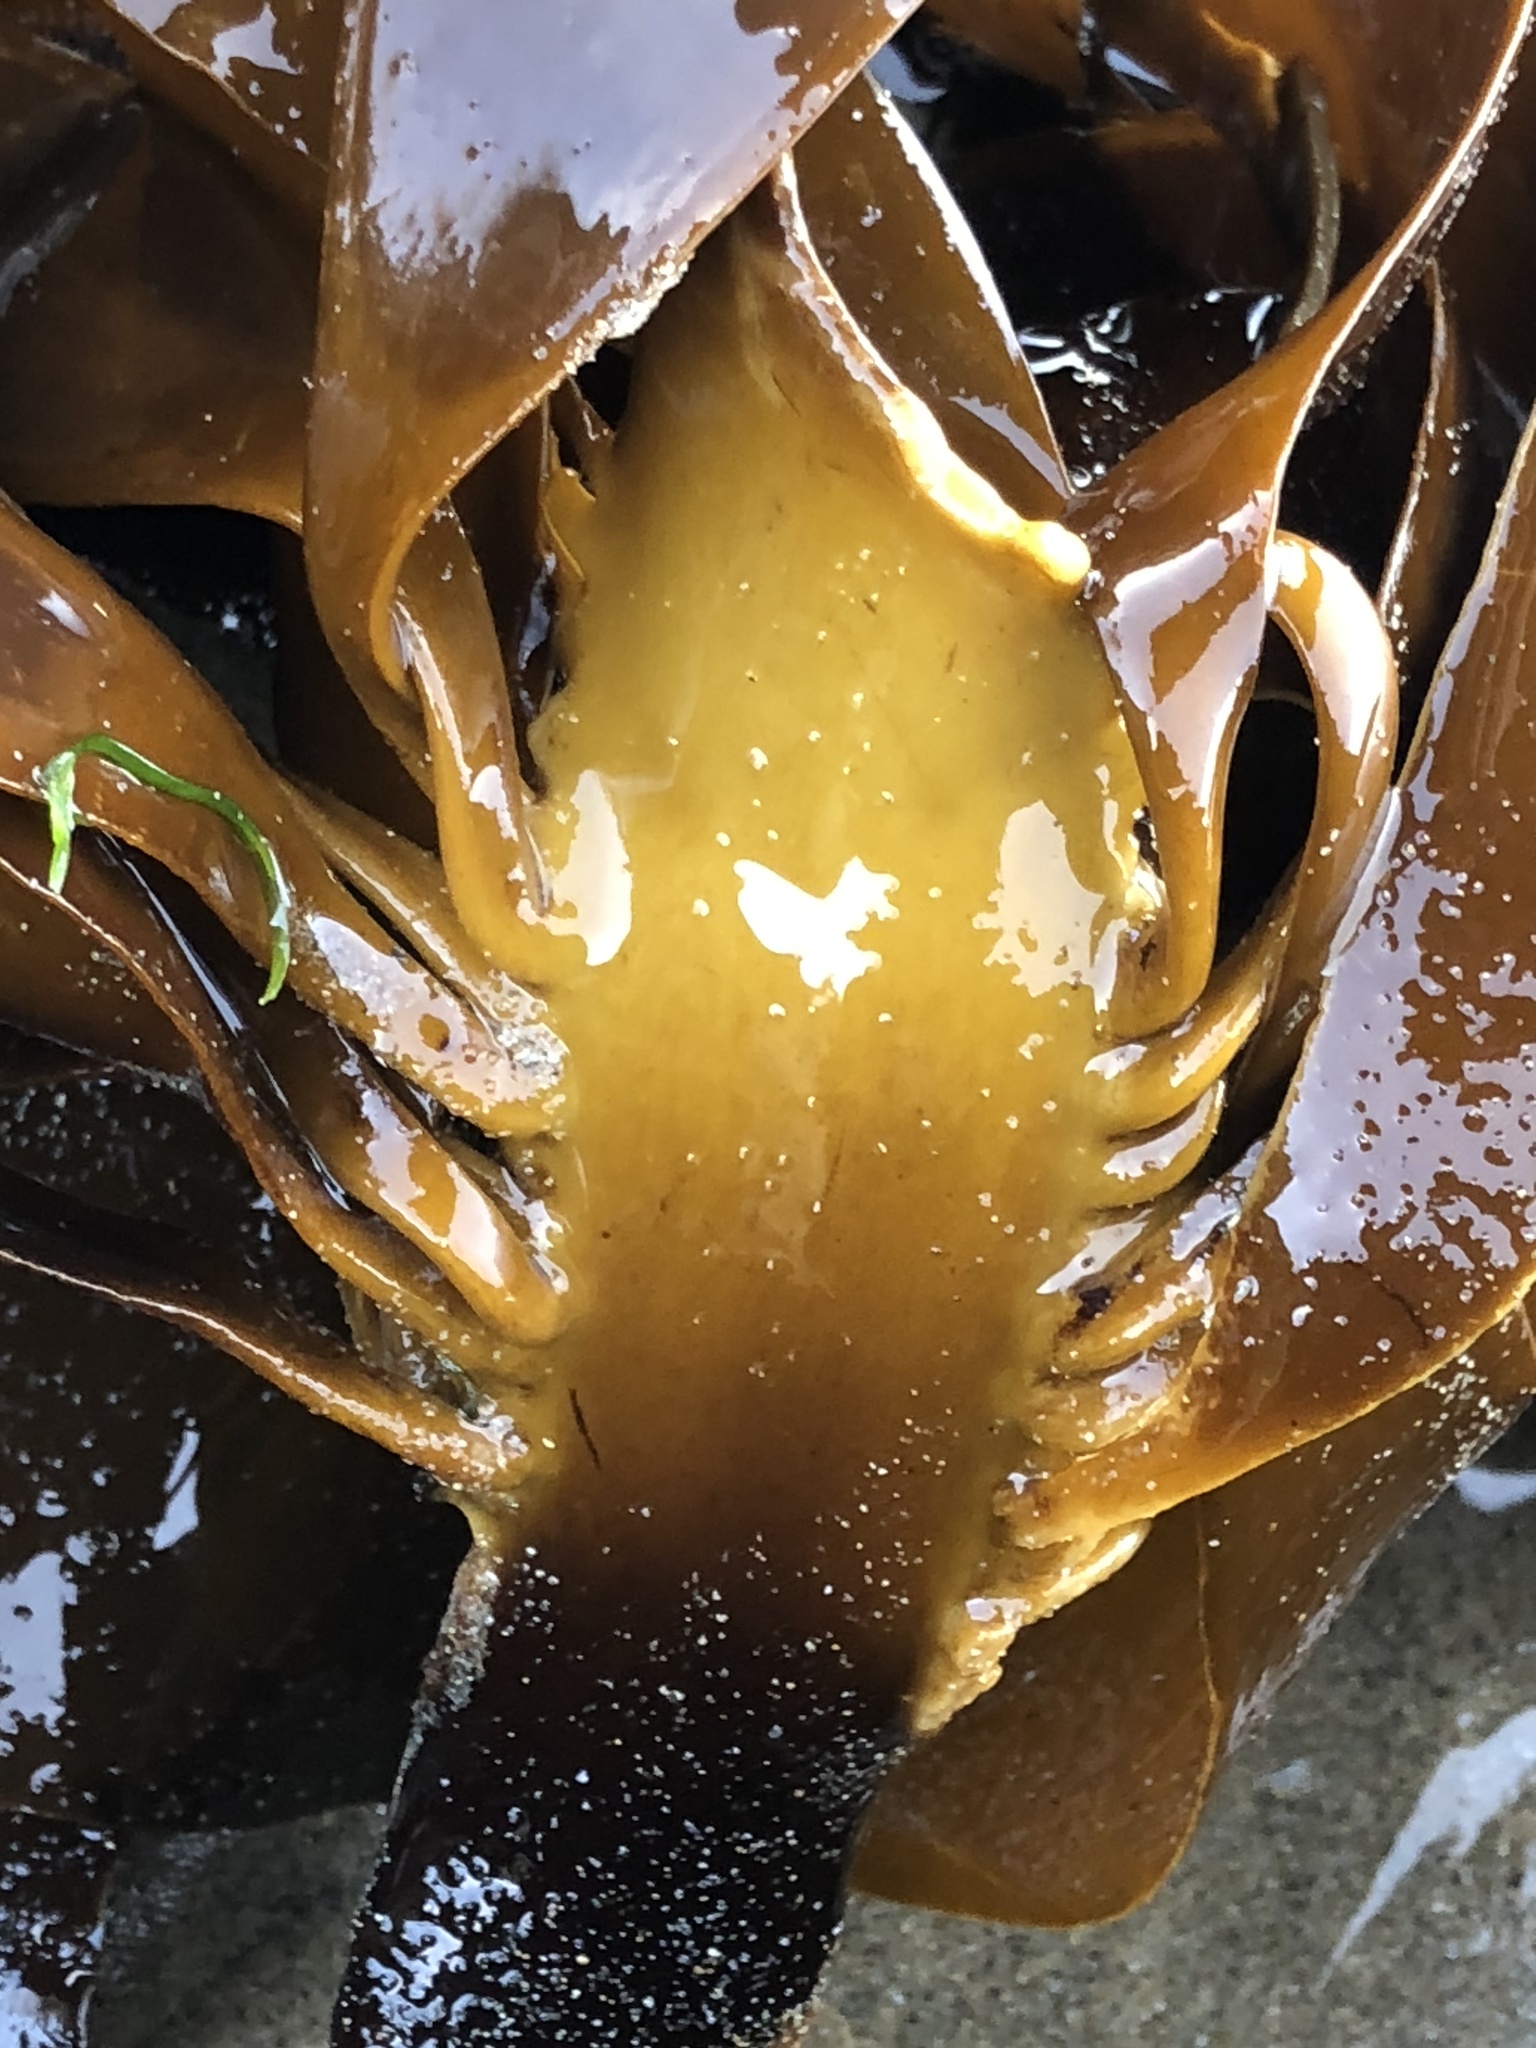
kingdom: Chromista
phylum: Ochrophyta
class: Phaeophyceae
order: Laminariales
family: Alariaceae
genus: Pterygophora
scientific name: Pterygophora californica
